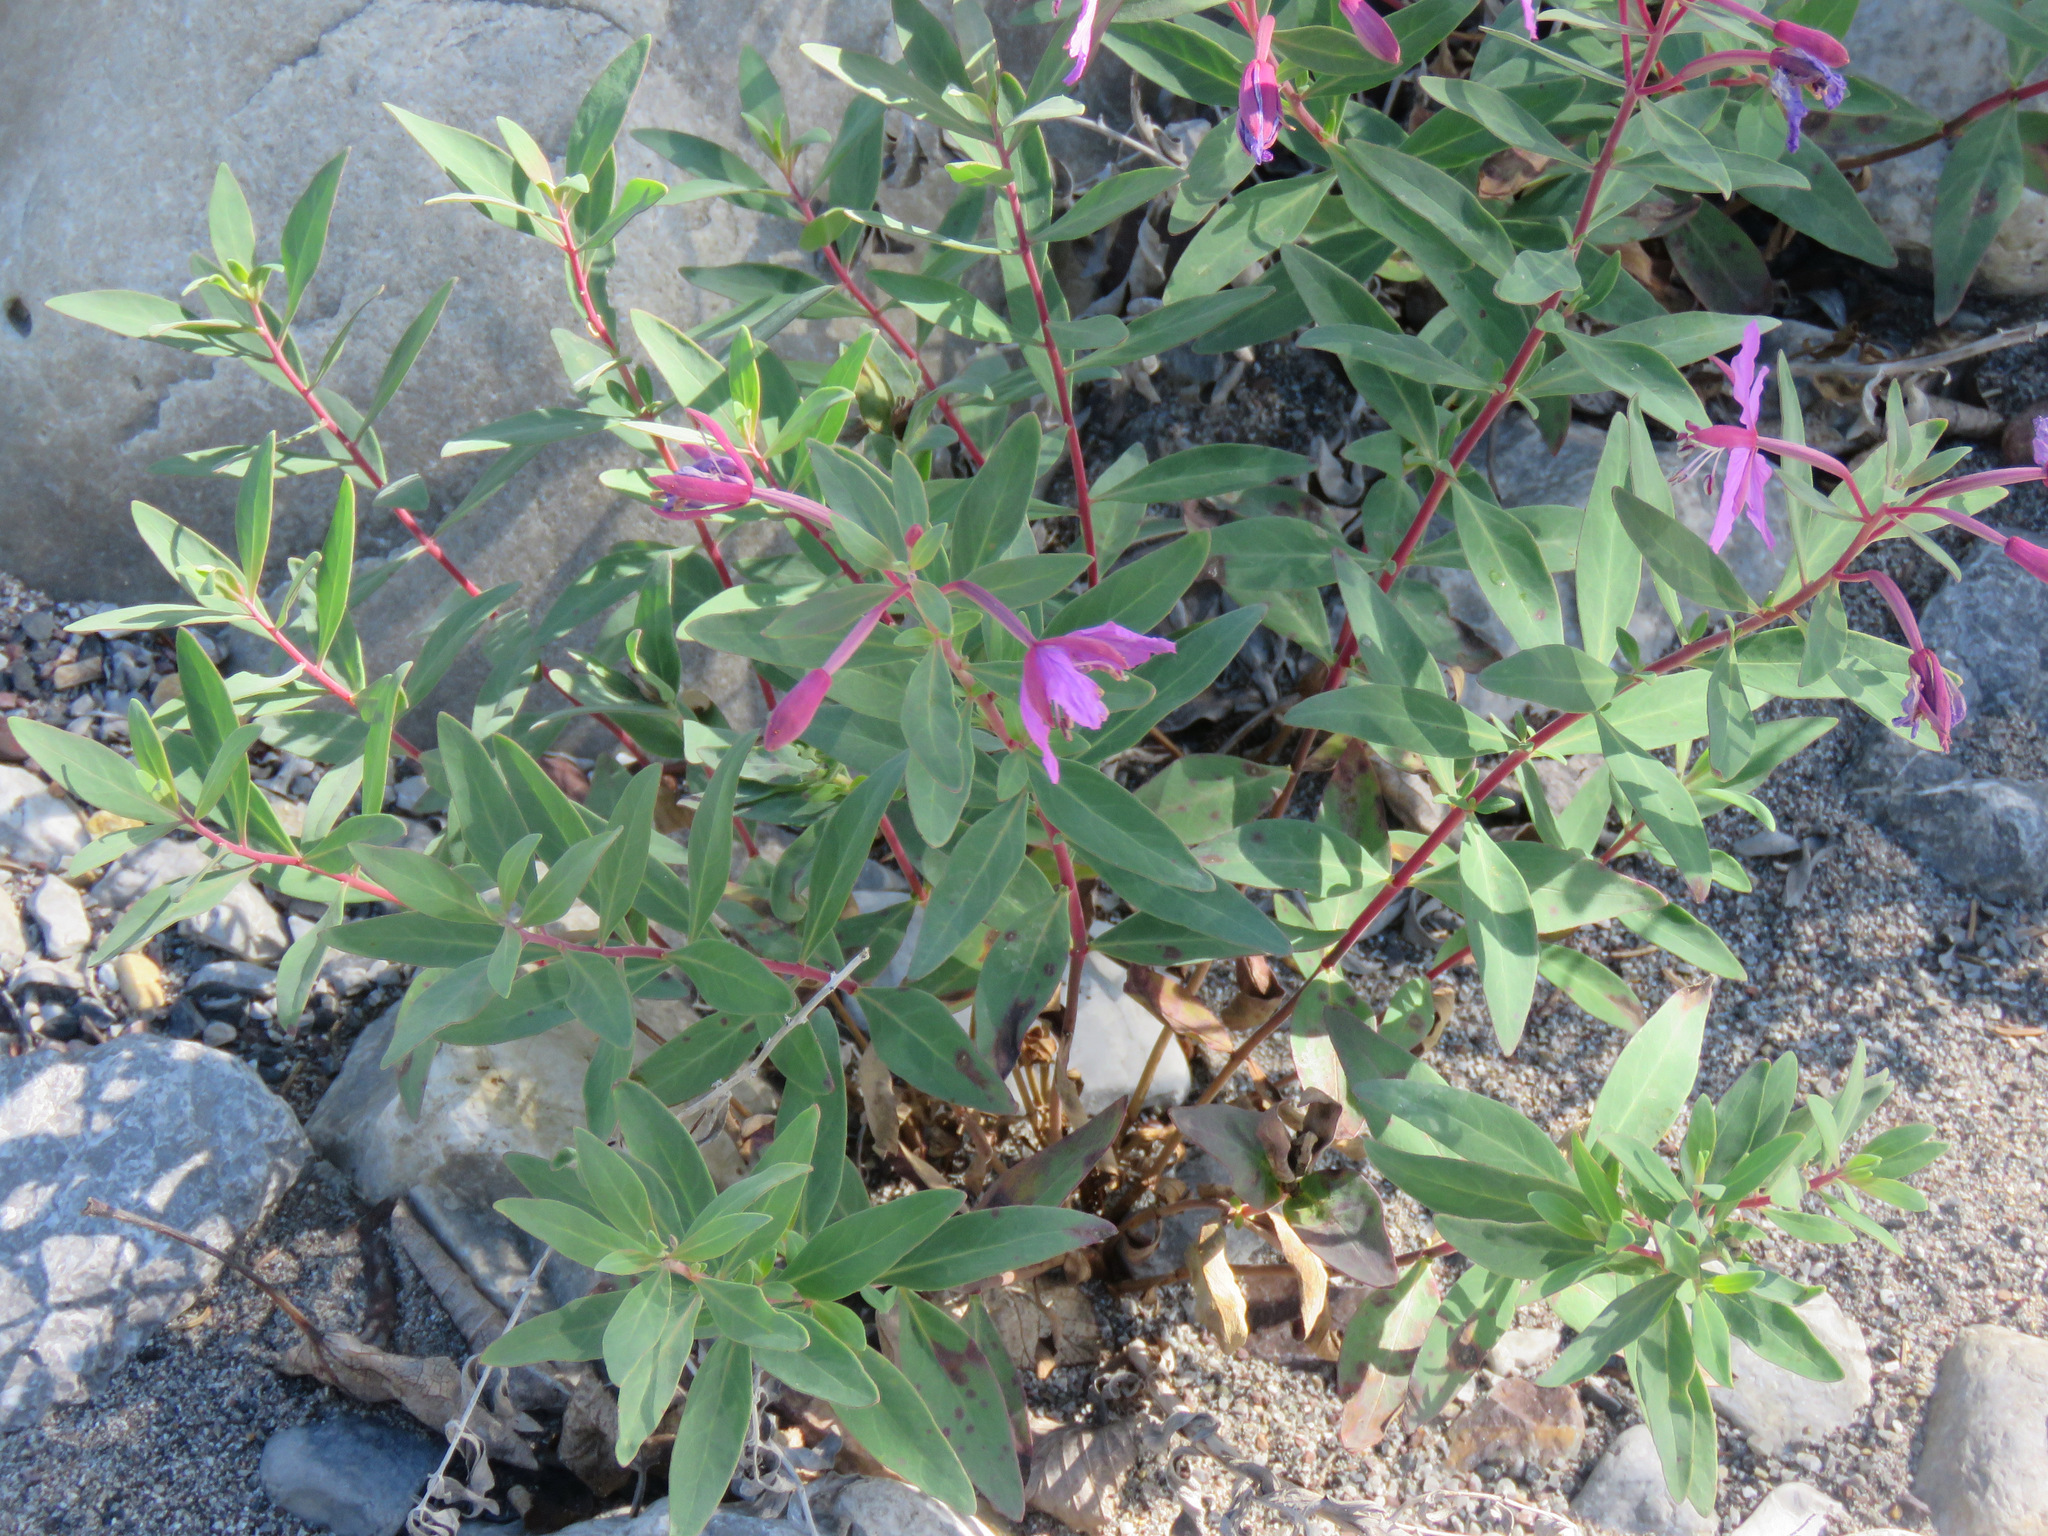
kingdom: Plantae
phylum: Tracheophyta
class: Magnoliopsida
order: Myrtales
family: Onagraceae
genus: Chamaenerion
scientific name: Chamaenerion latifolium
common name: Dwarf fireweed
